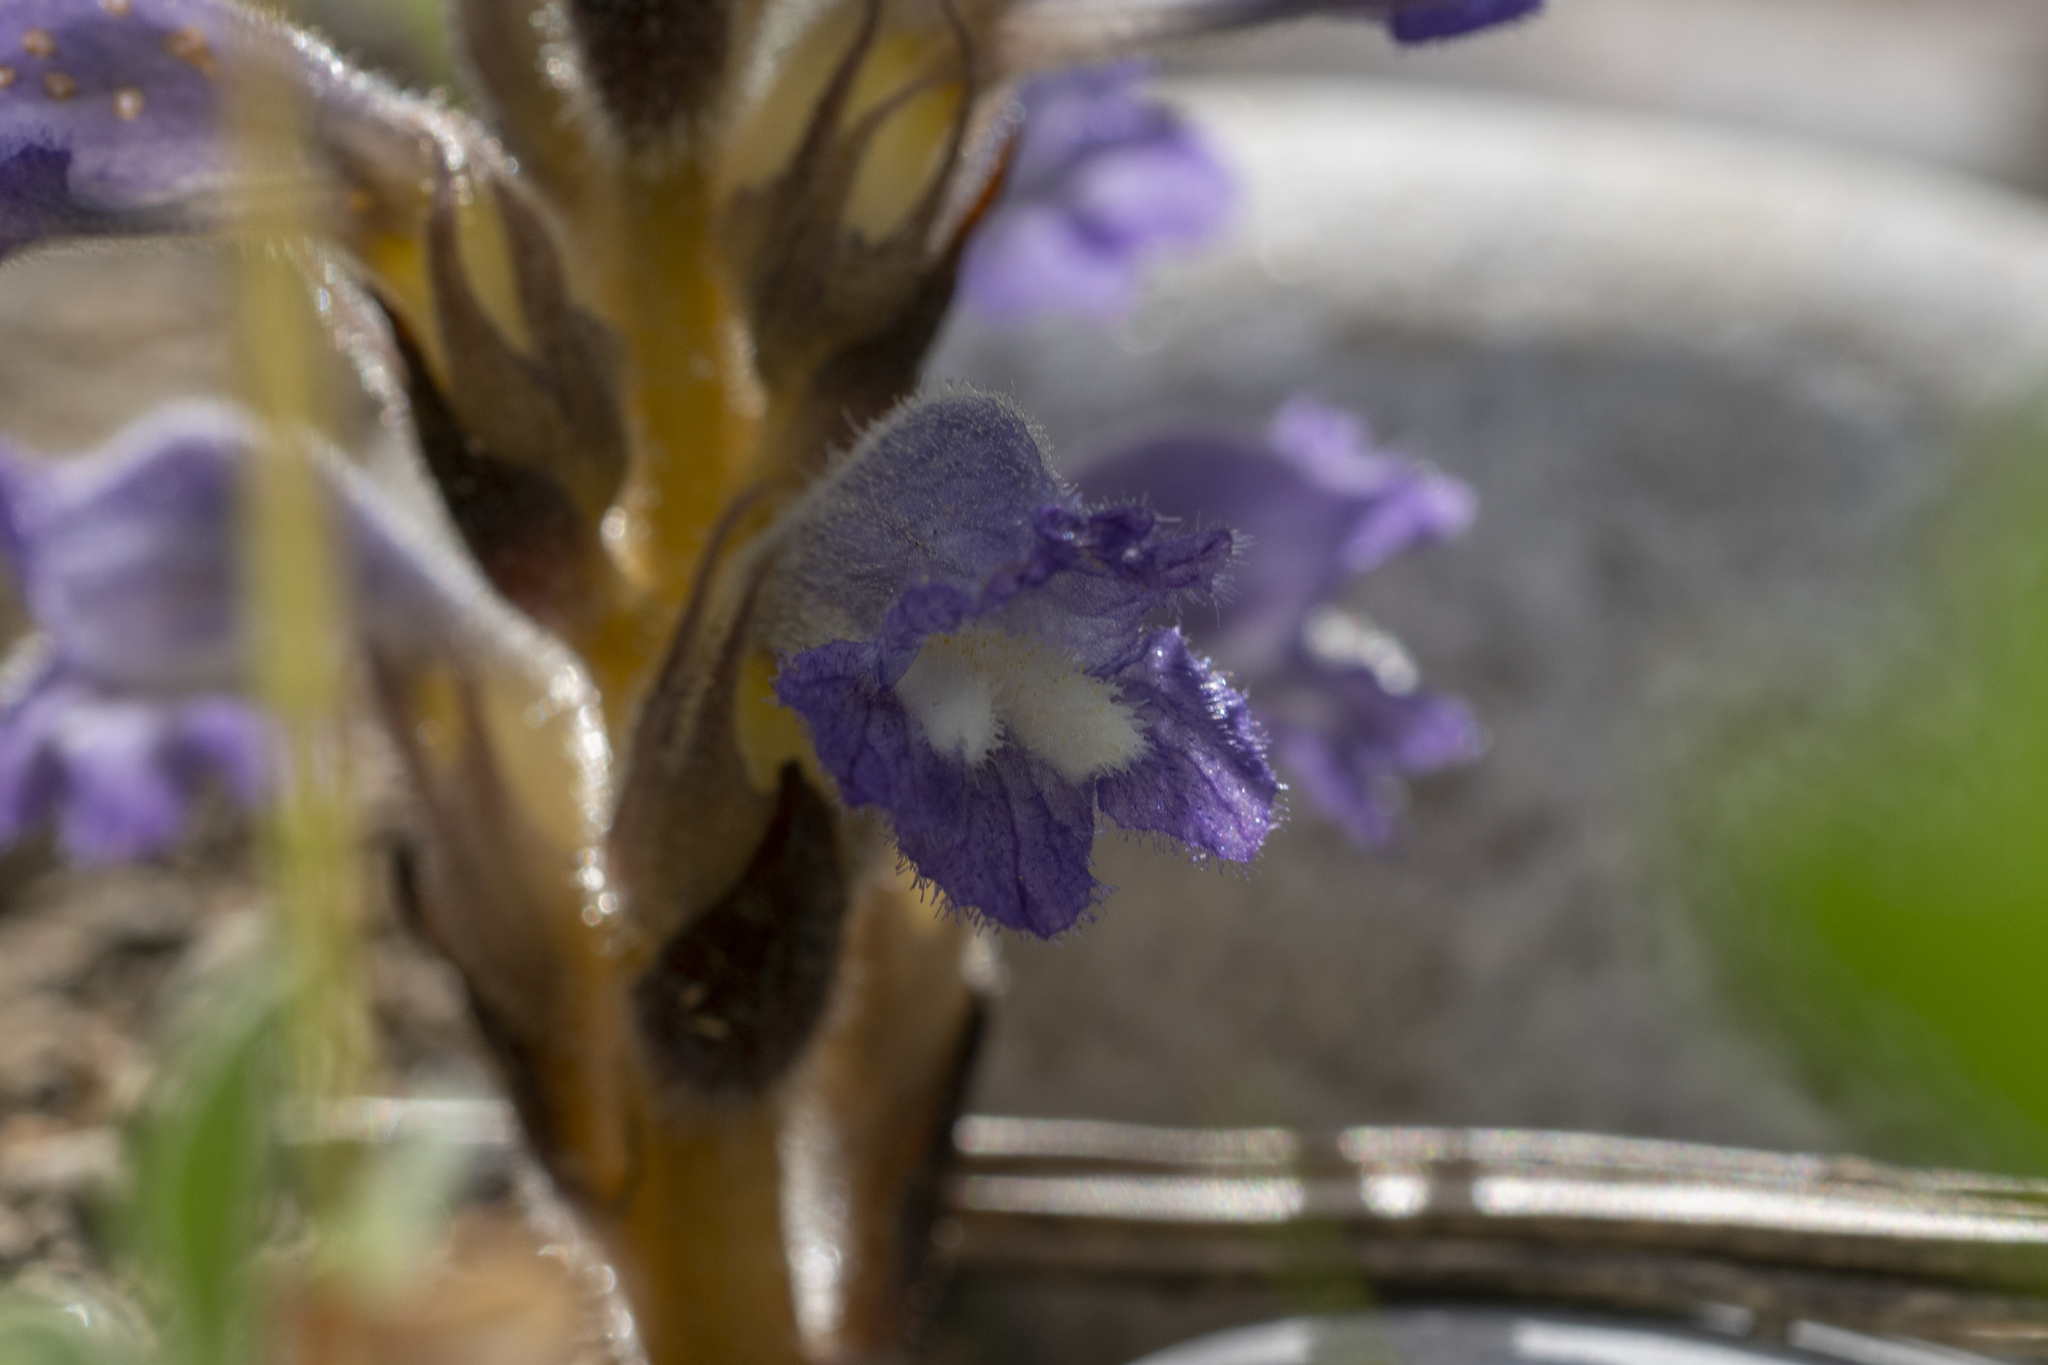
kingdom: Plantae
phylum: Tracheophyta
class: Magnoliopsida
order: Lamiales
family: Orobanchaceae
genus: Phelipanche
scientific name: Phelipanche mutelii
